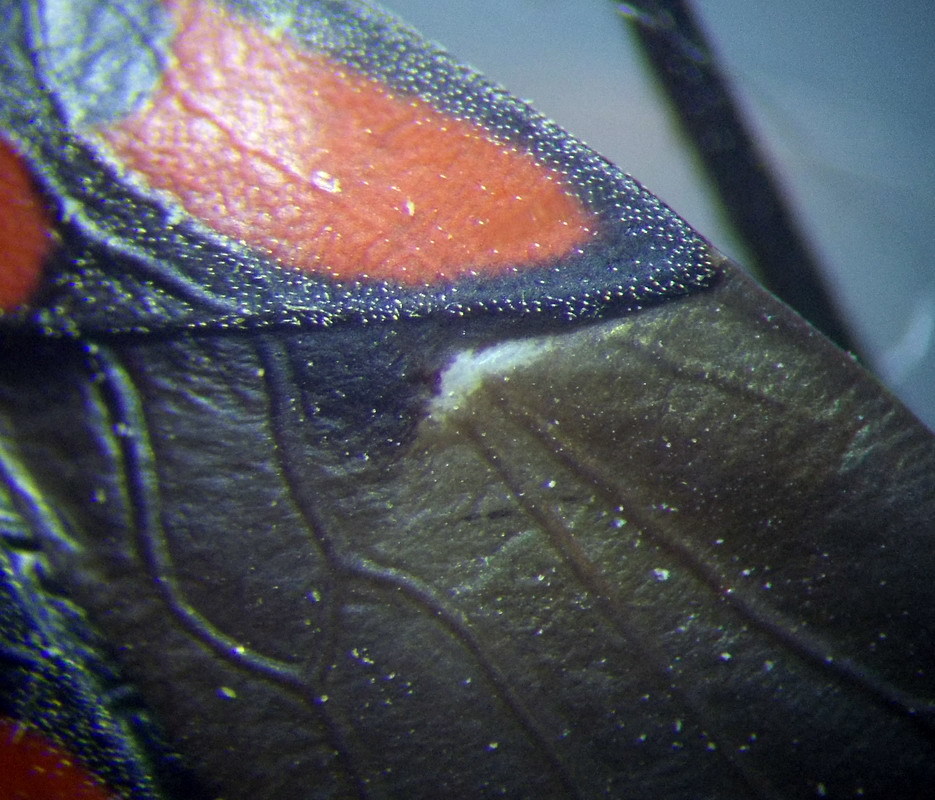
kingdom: Animalia
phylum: Arthropoda
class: Insecta
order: Hemiptera
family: Lygaeidae
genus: Spilostethus
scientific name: Spilostethus saxatilis
